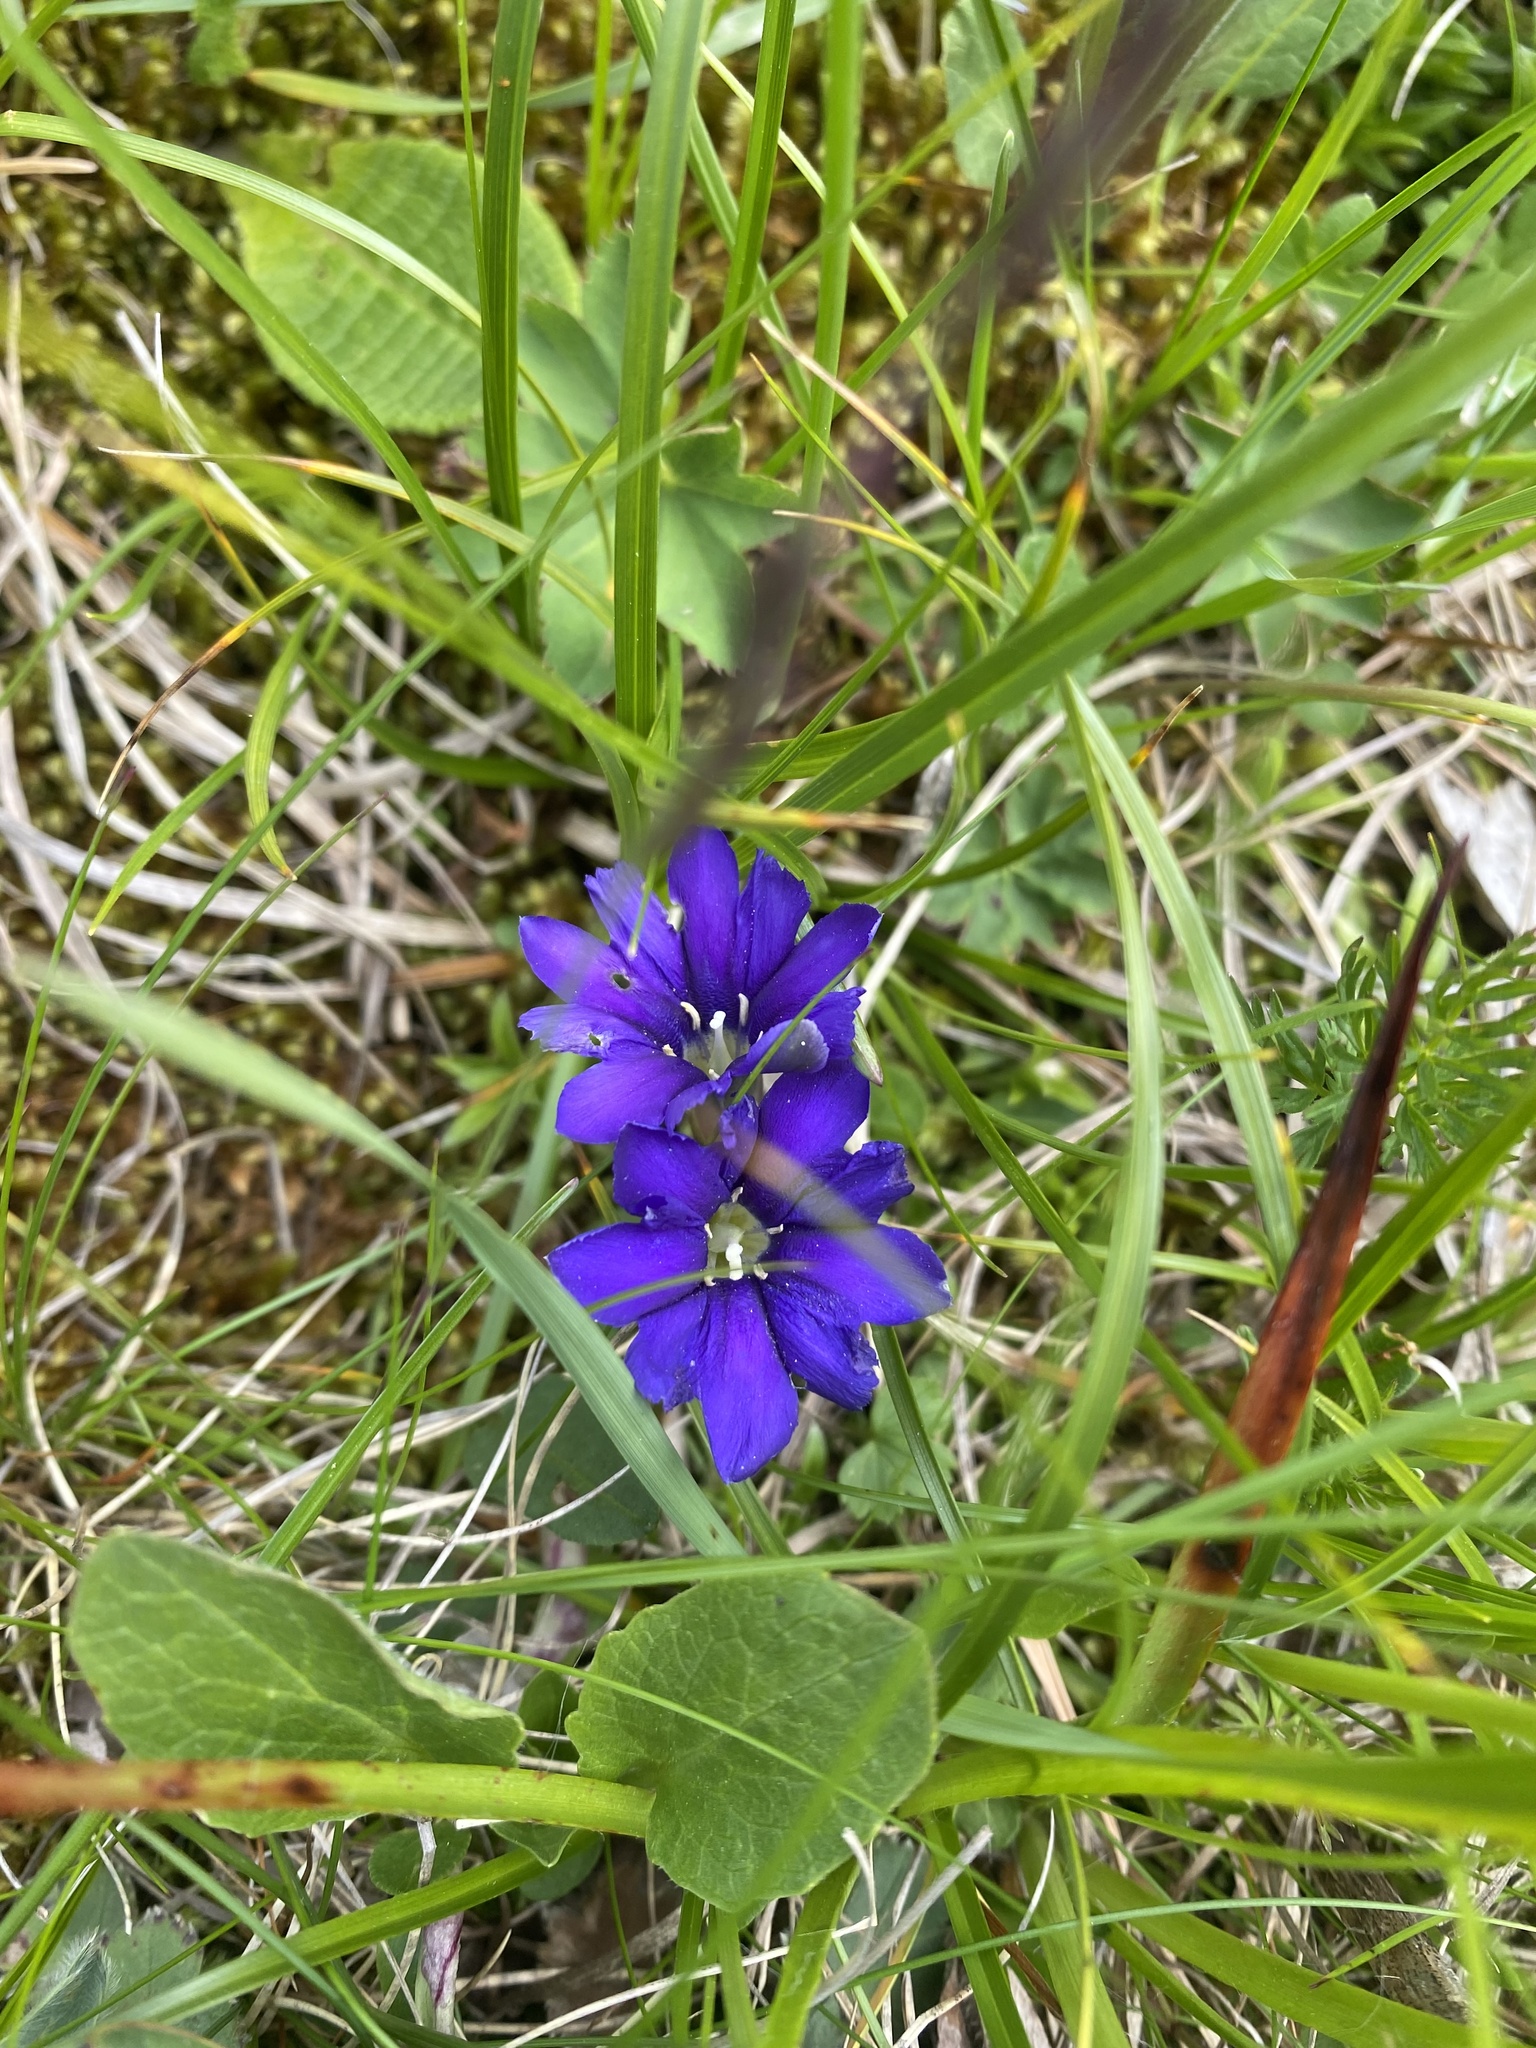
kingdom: Plantae
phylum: Tracheophyta
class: Magnoliopsida
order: Gentianales
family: Gentianaceae
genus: Gentiana
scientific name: Gentiana dshimilensis
